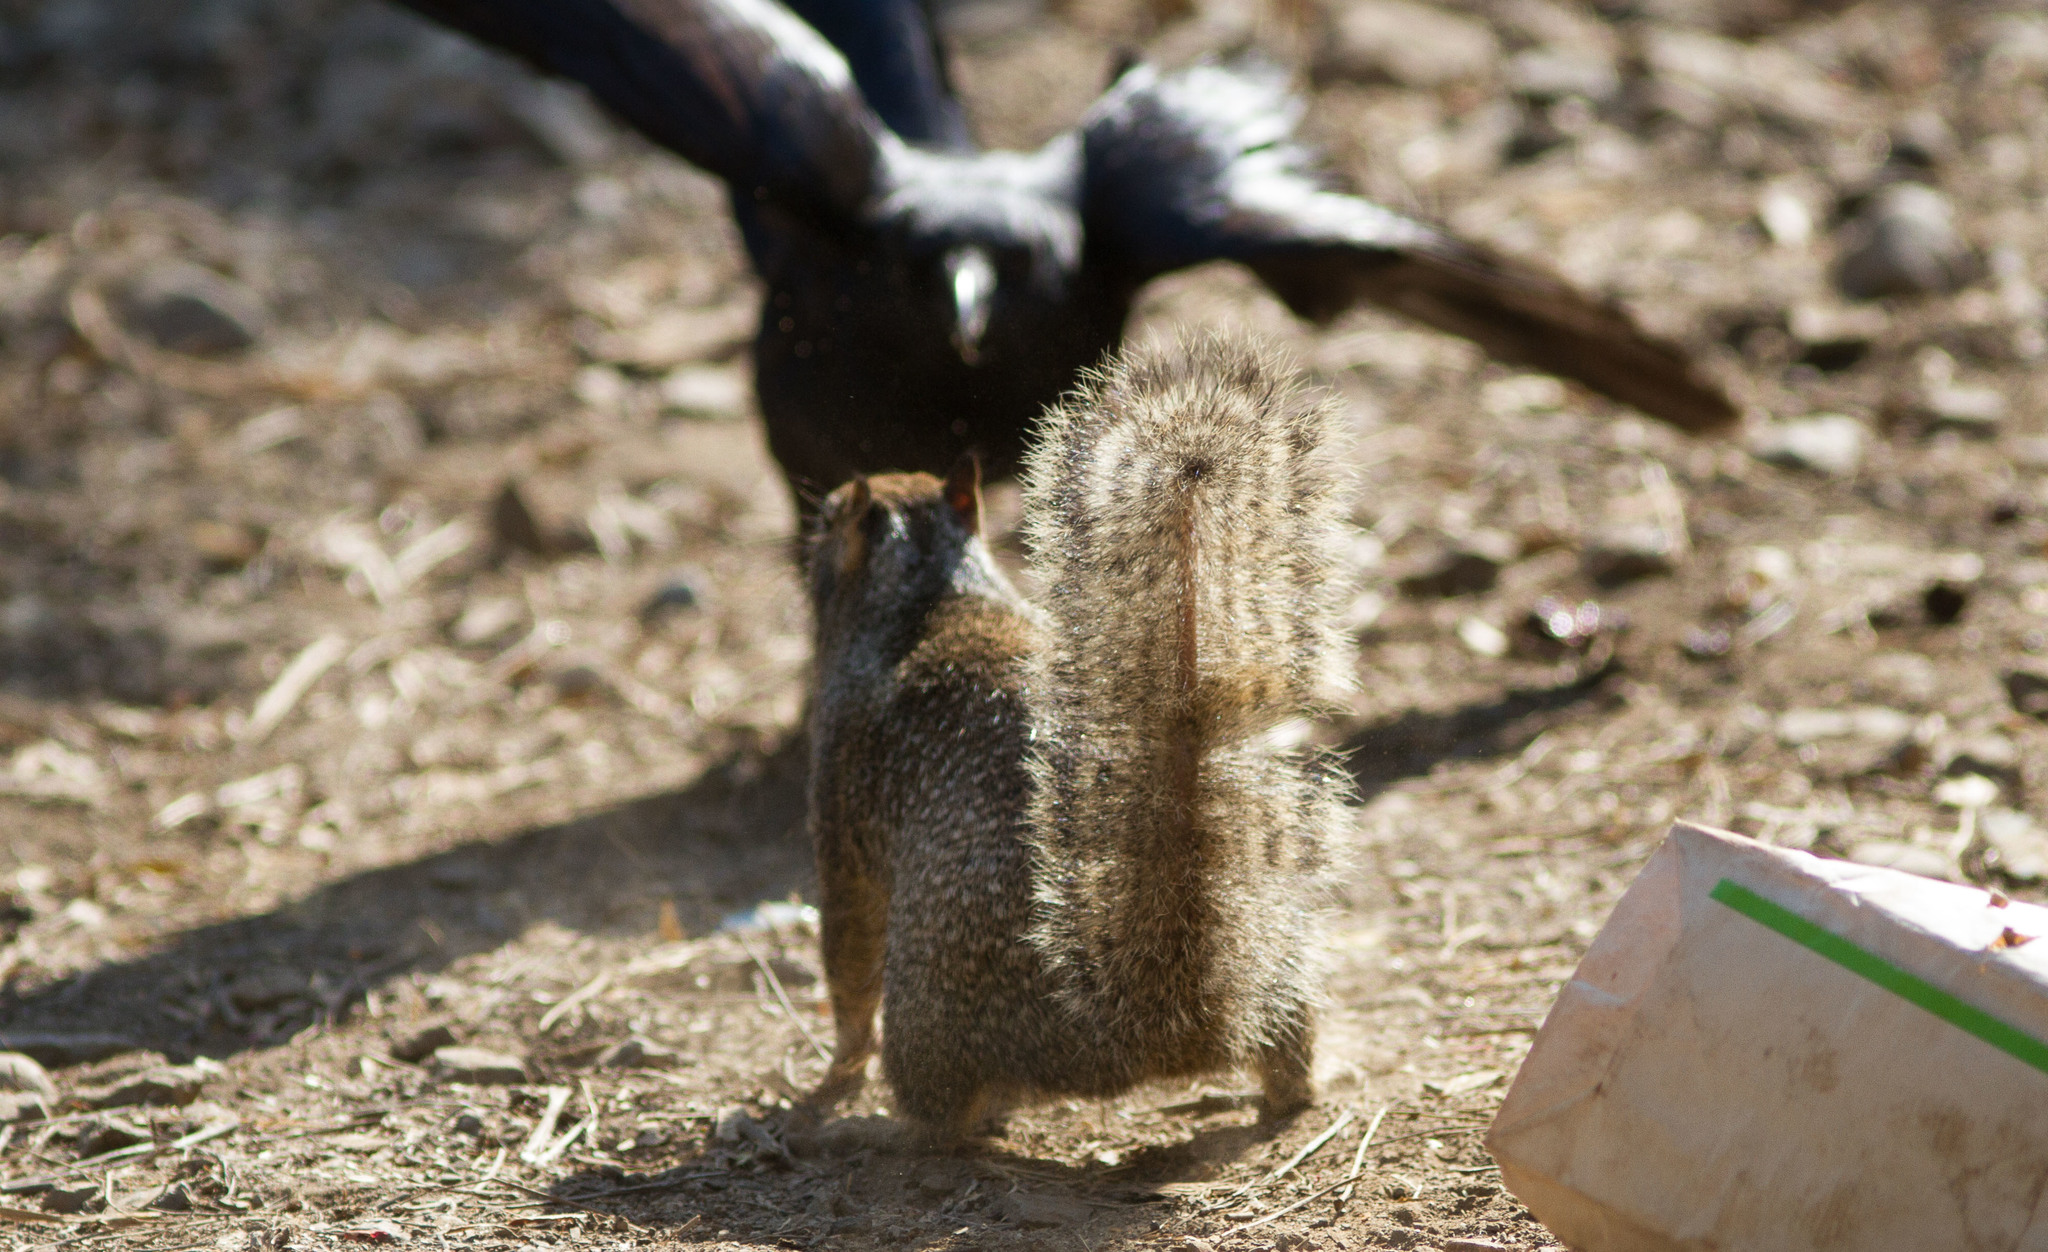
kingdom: Animalia
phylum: Chordata
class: Mammalia
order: Rodentia
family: Sciuridae
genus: Otospermophilus
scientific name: Otospermophilus beecheyi
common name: California ground squirrel
